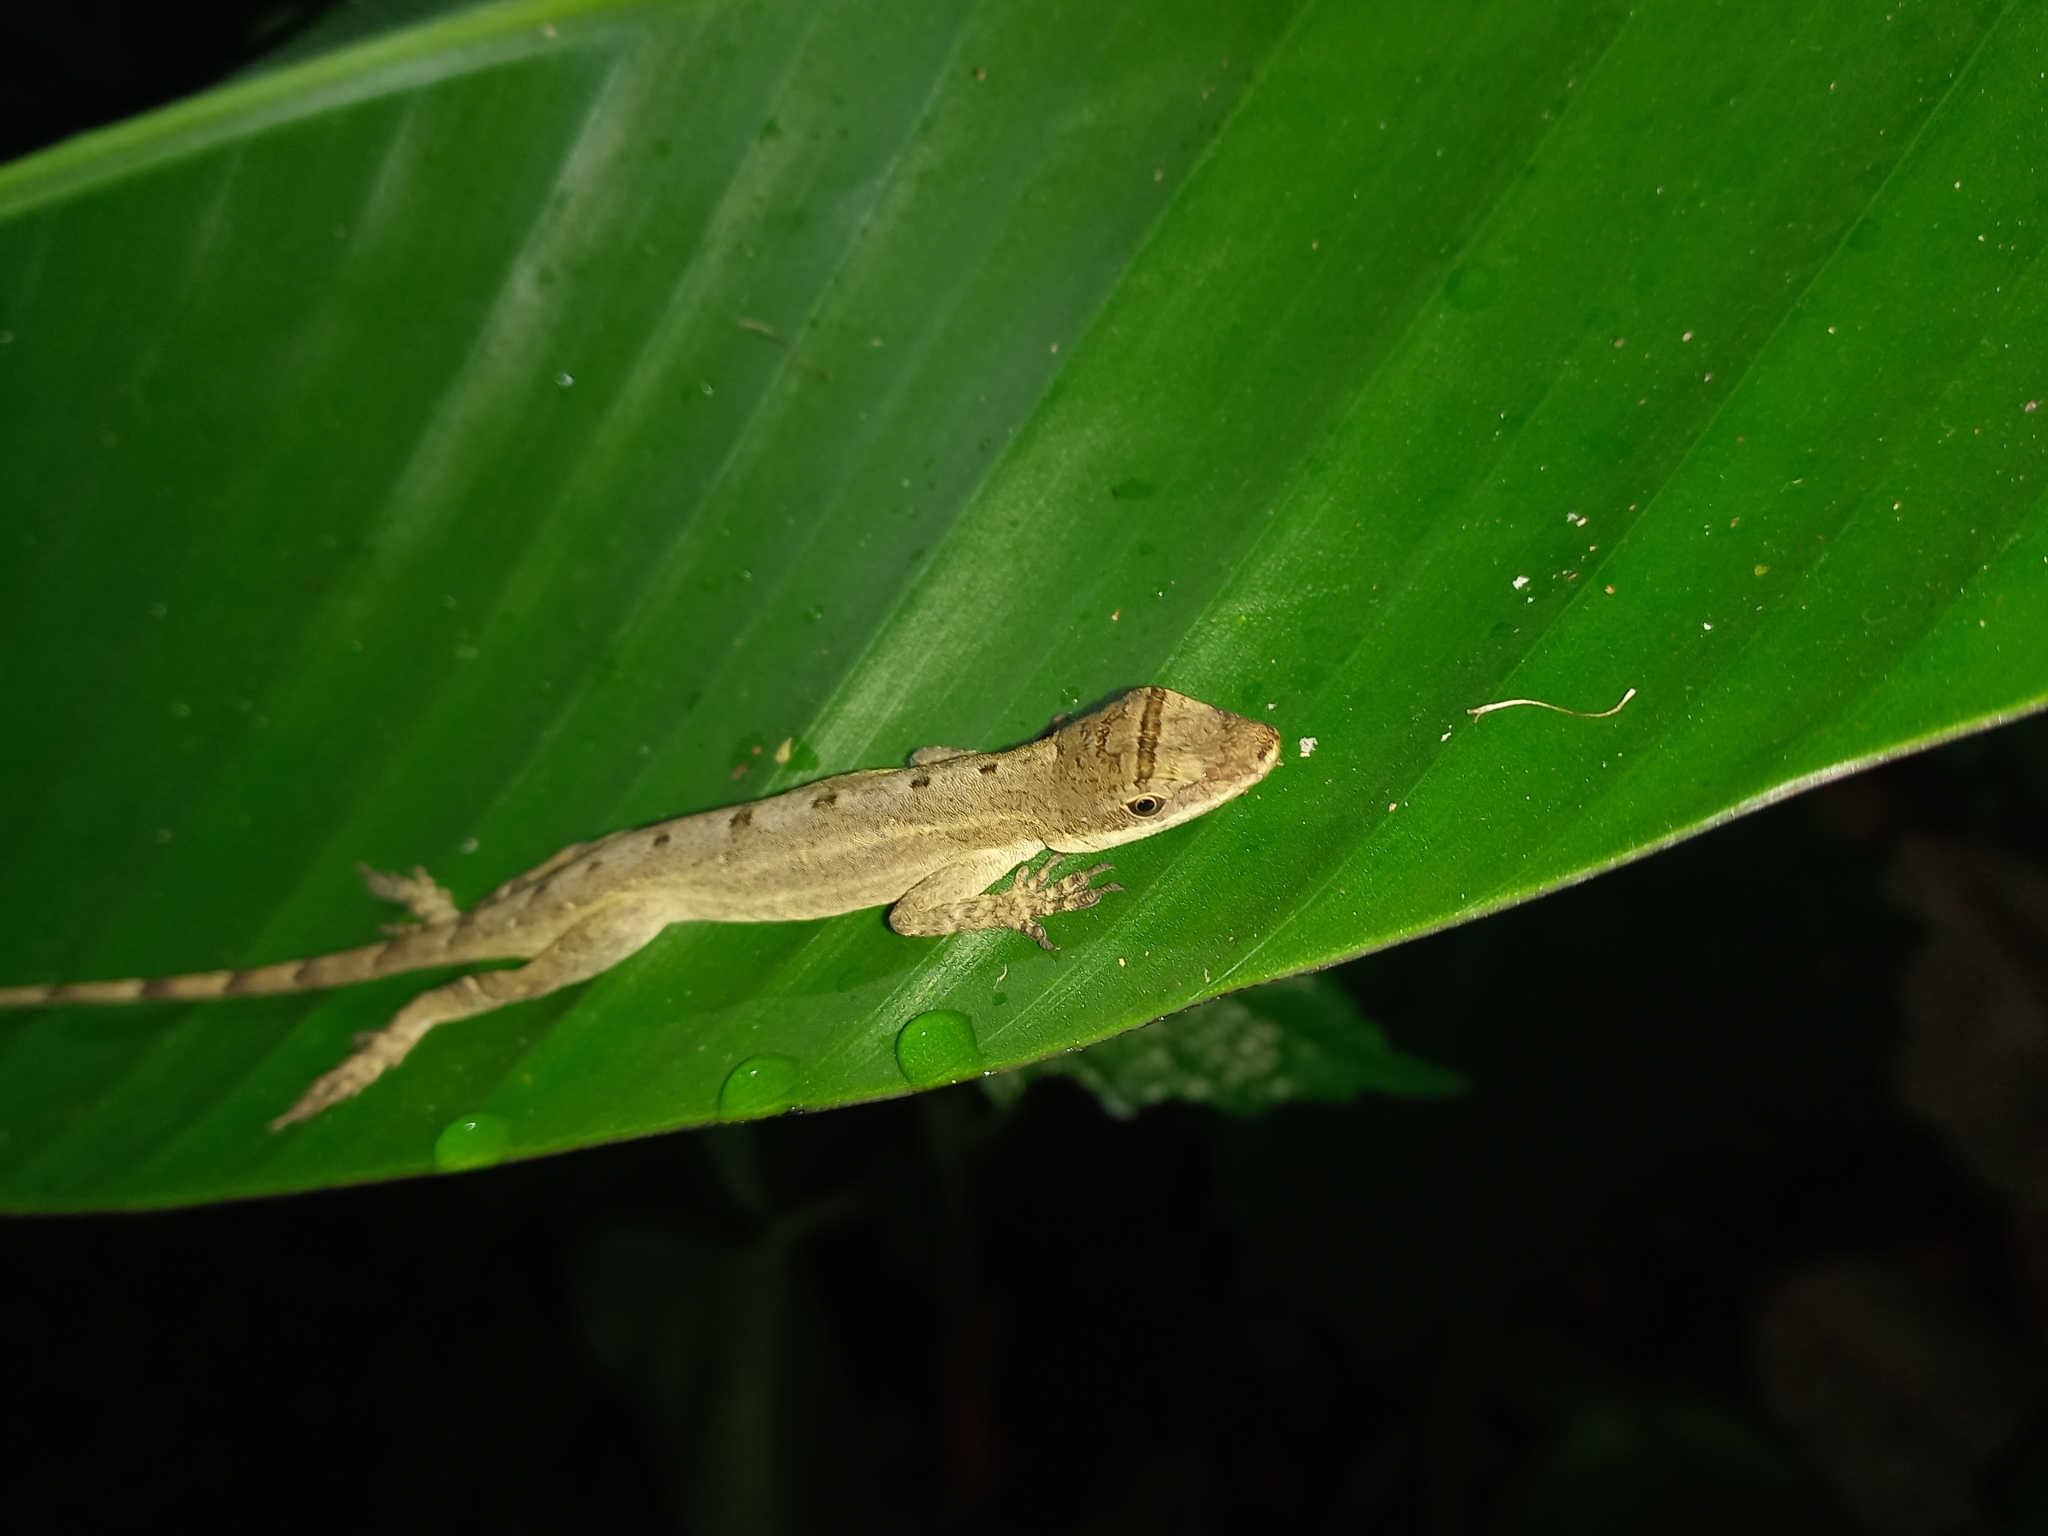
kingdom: Animalia
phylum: Chordata
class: Squamata
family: Dactyloidae
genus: Anolis
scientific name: Anolis antonii
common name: Anton's anole
